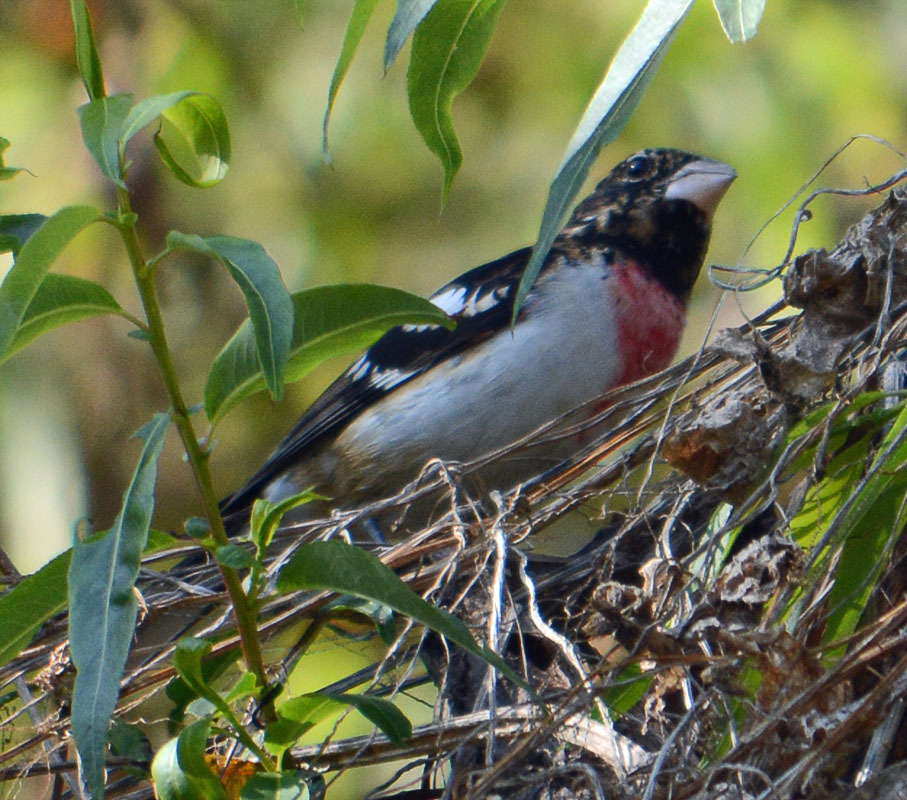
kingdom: Animalia
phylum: Chordata
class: Aves
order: Passeriformes
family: Cardinalidae
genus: Pheucticus
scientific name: Pheucticus ludovicianus
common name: Rose-breasted grosbeak
